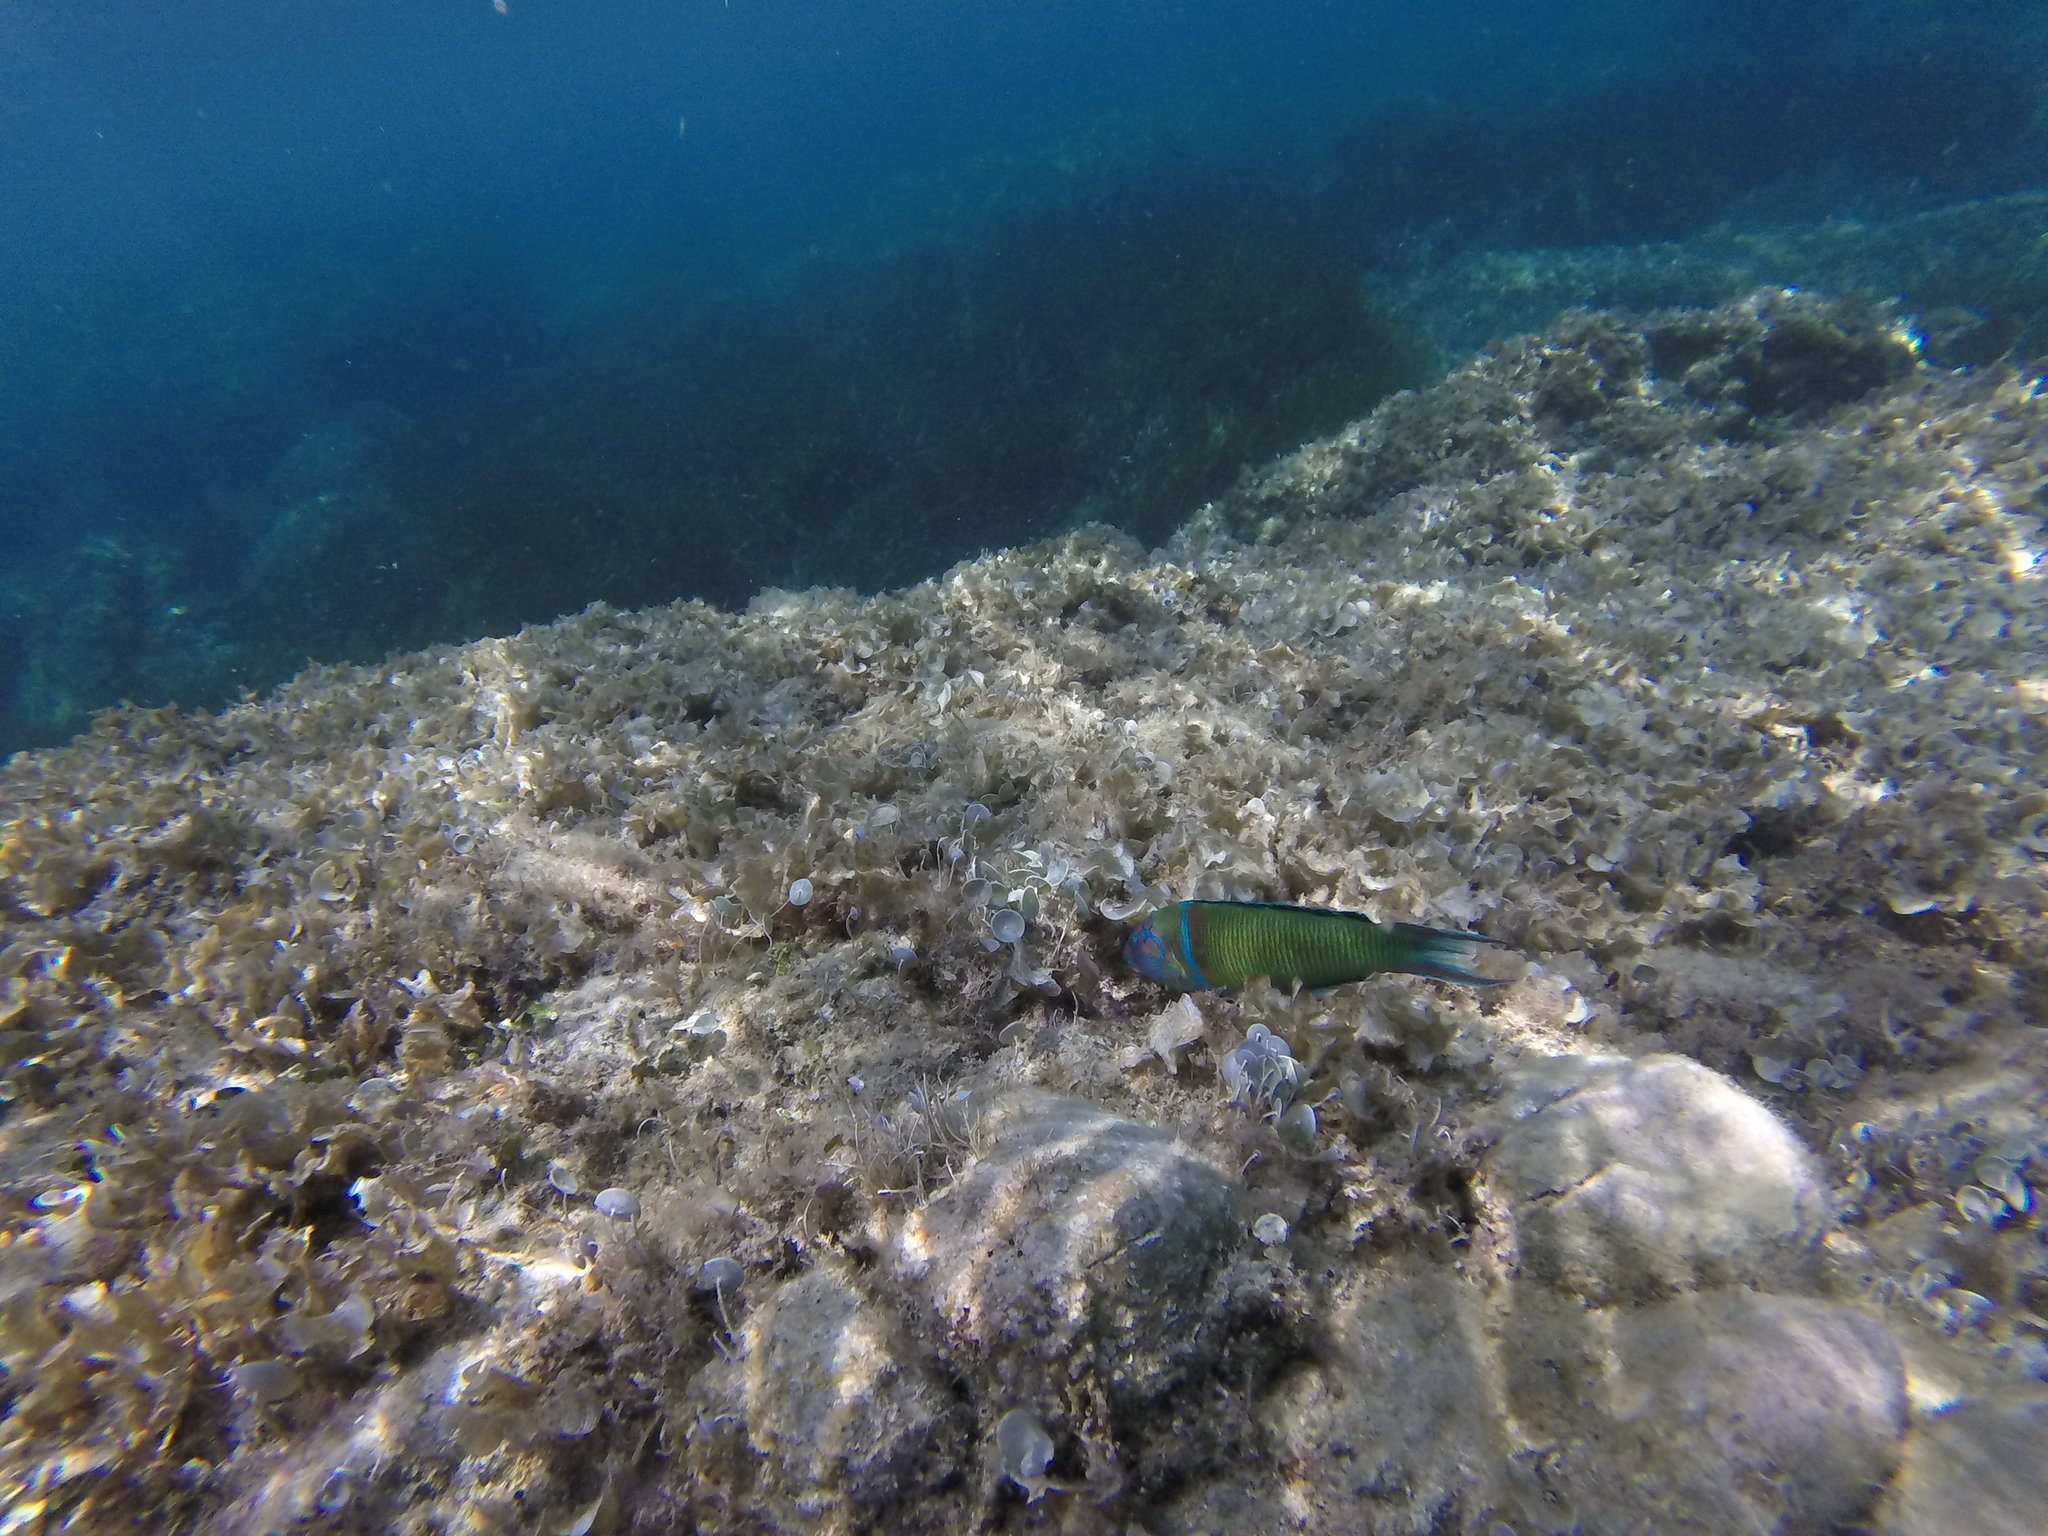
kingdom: Animalia
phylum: Chordata
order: Perciformes
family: Labridae
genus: Thalassoma
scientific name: Thalassoma pavo
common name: Ornate wrasse
